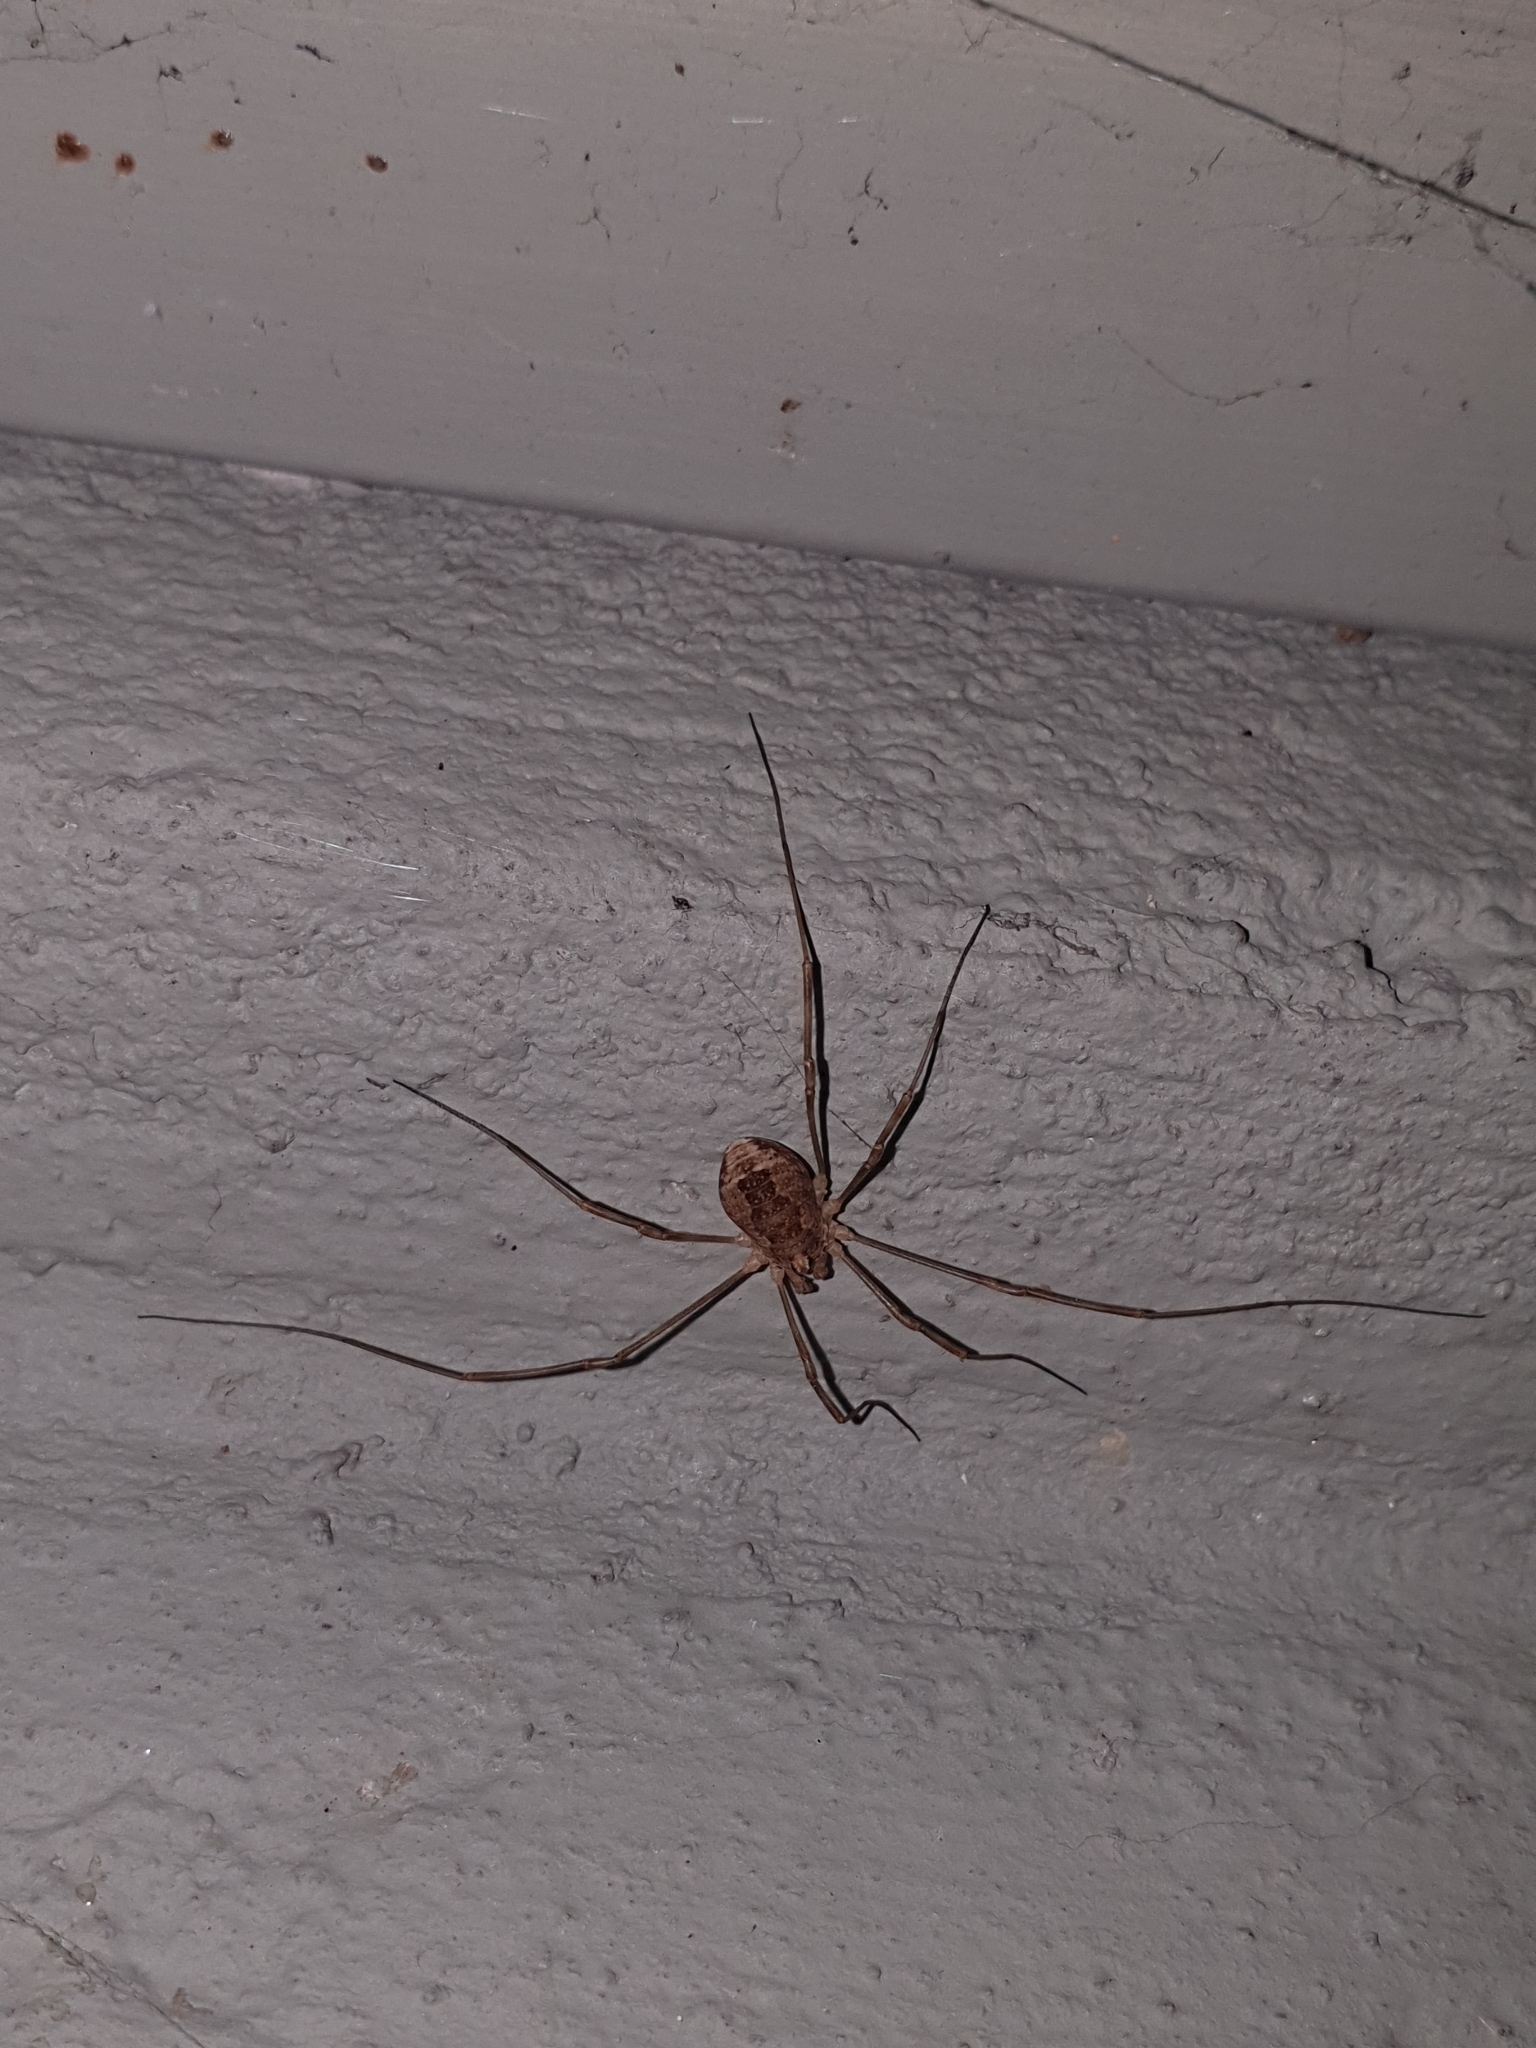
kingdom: Animalia
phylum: Arthropoda
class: Arachnida
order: Opiliones
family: Phalangiidae
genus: Rilaena
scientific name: Rilaena triangularis
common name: Spring harvestman
